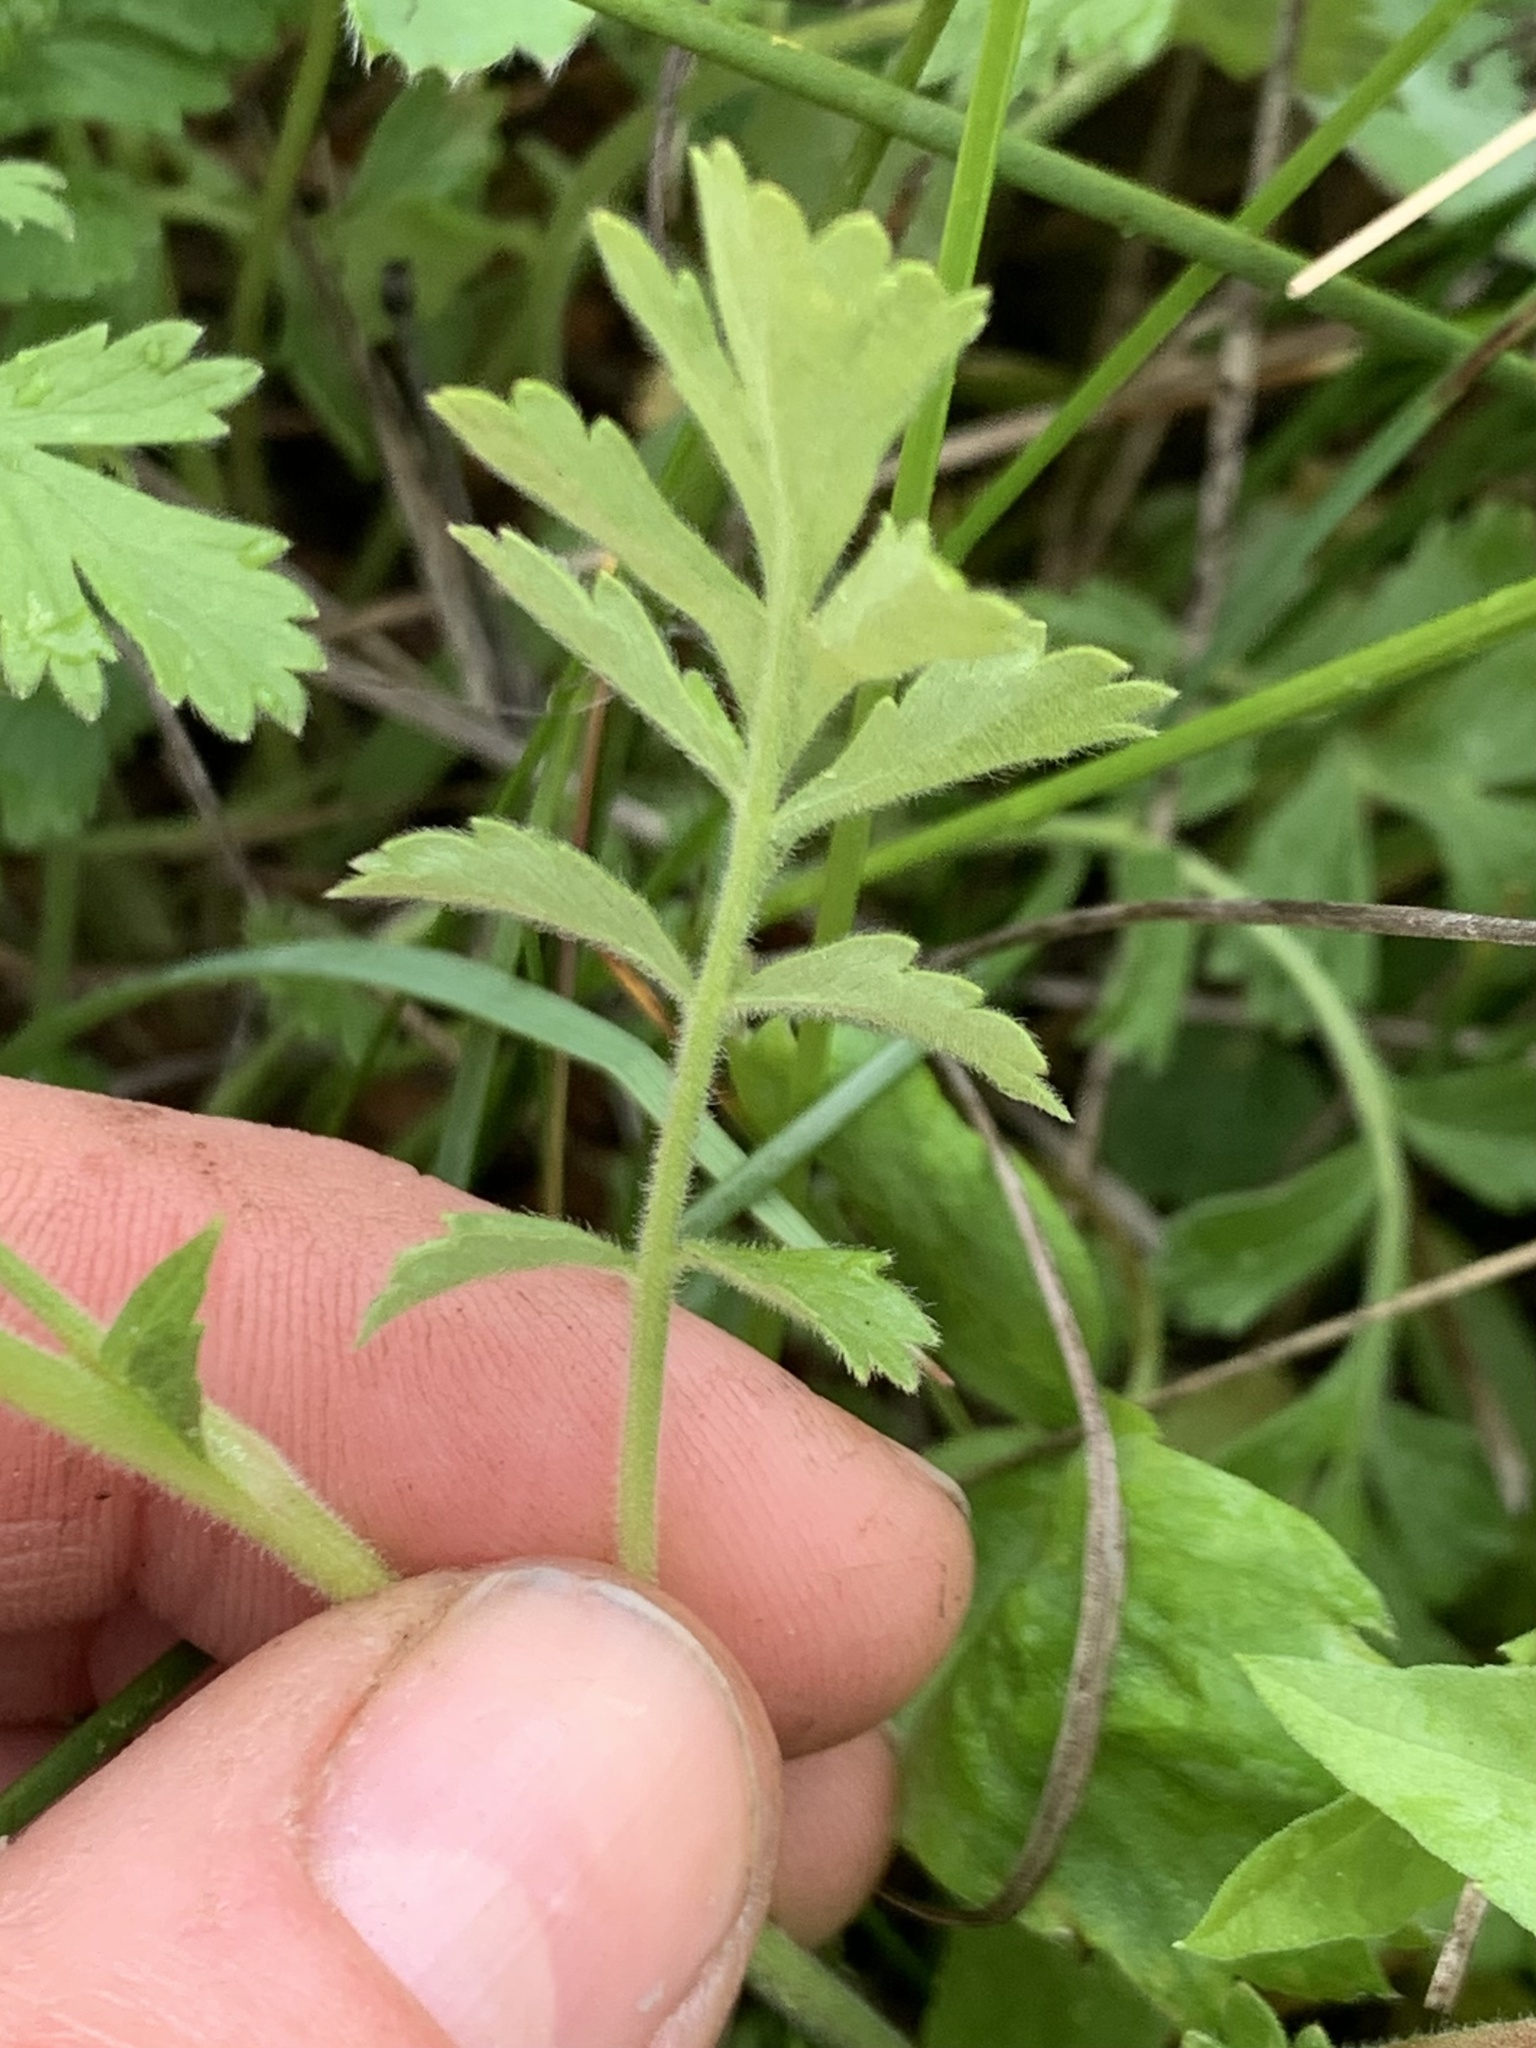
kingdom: Plantae
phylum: Tracheophyta
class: Magnoliopsida
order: Rosales
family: Rosaceae
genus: Potentilla
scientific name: Potentilla douglasii
